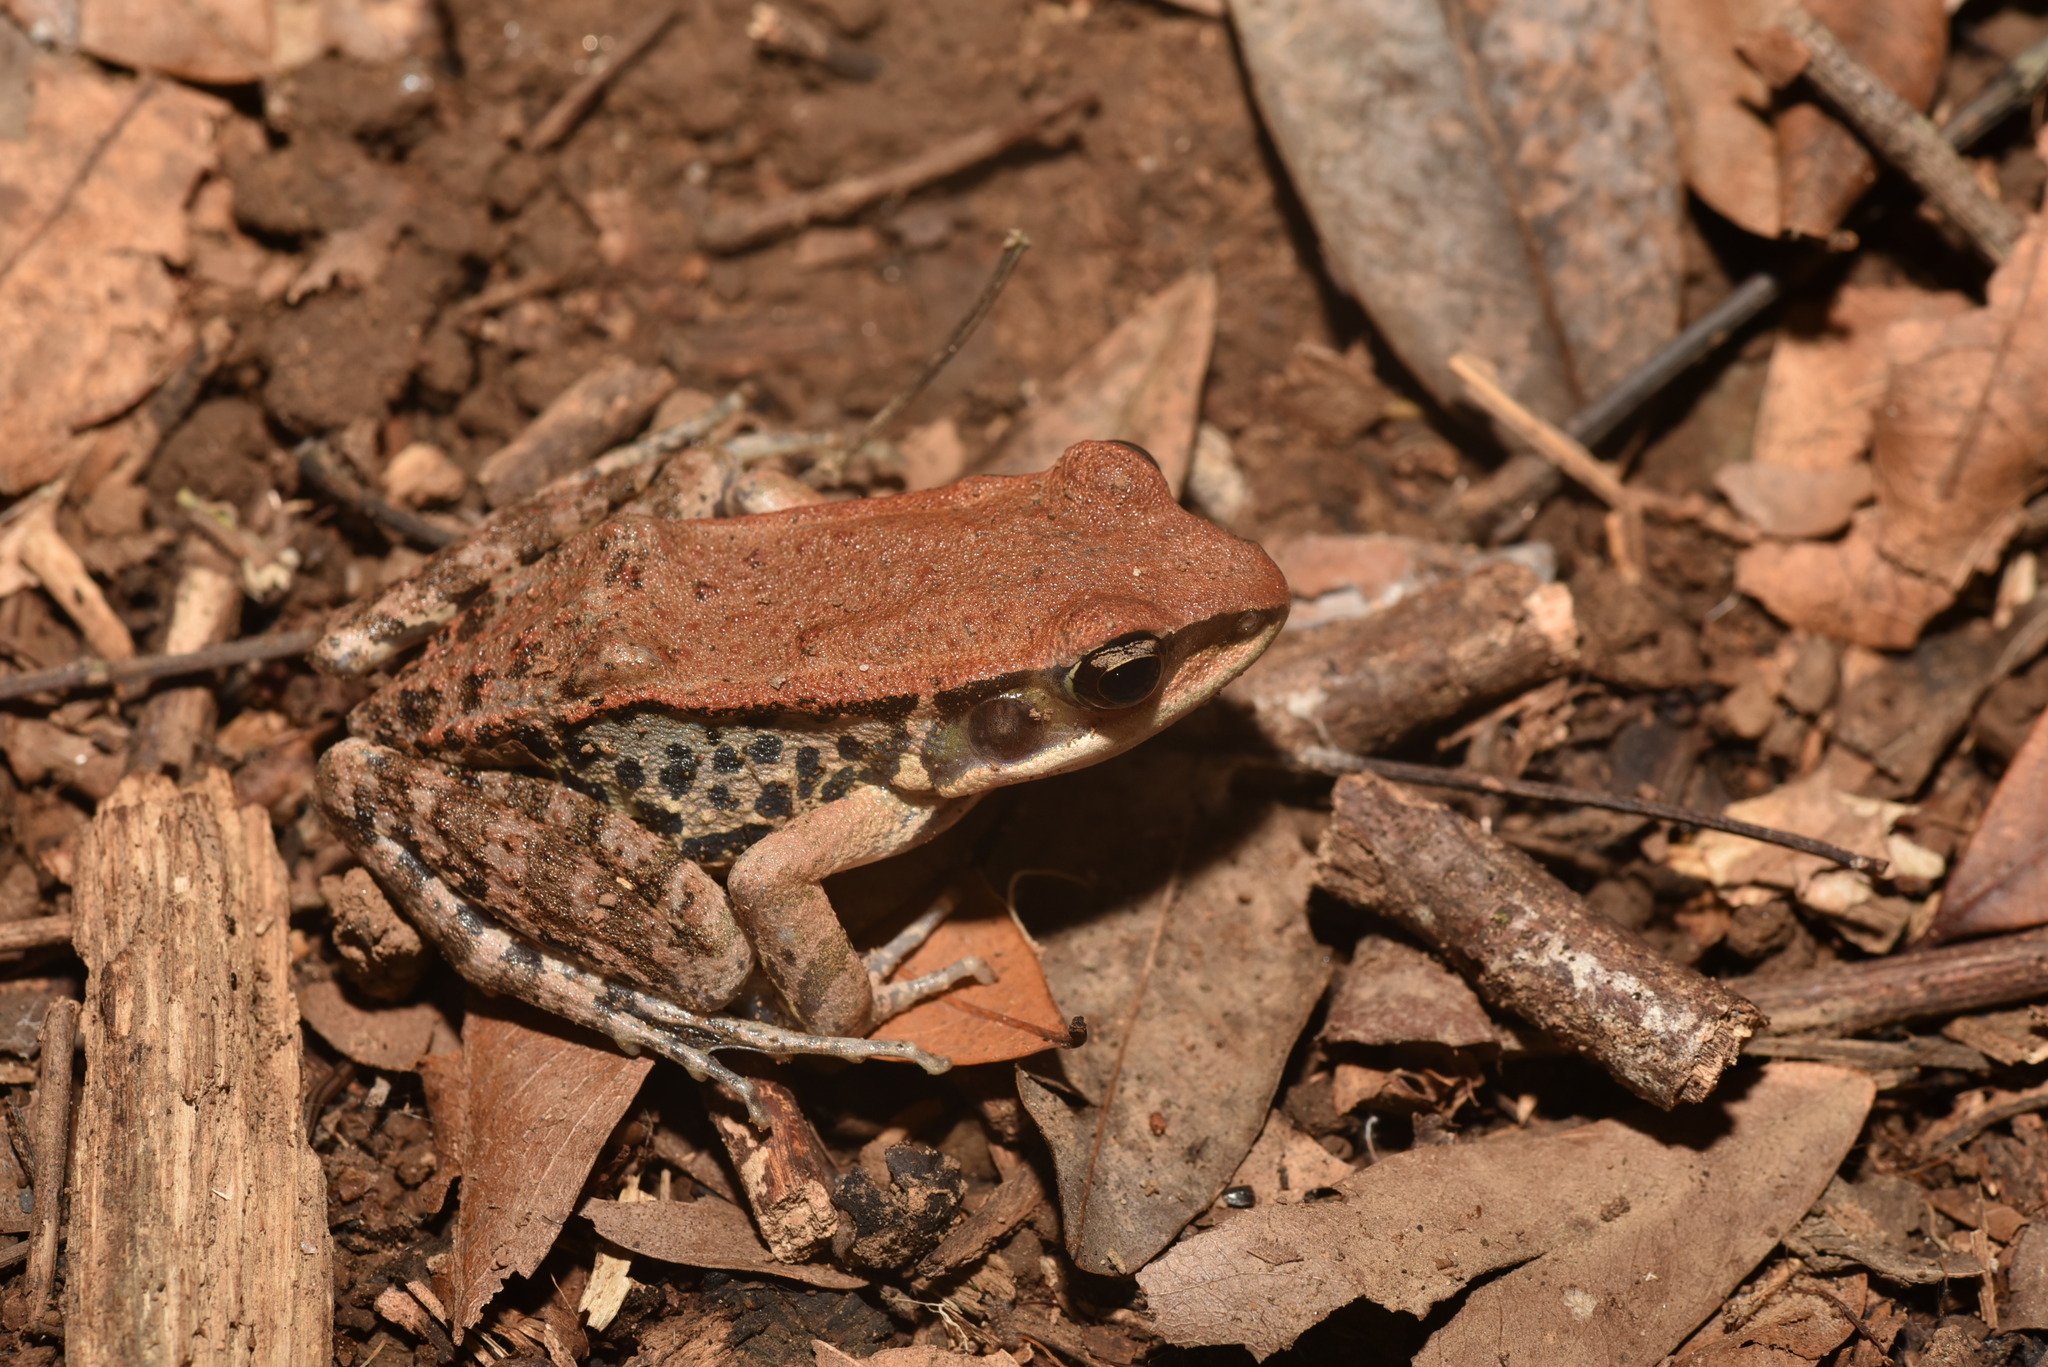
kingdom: Animalia
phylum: Chordata
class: Amphibia
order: Anura
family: Ranidae
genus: Hylarana
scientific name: Hylarana latouchii
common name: Broad-folded frog
